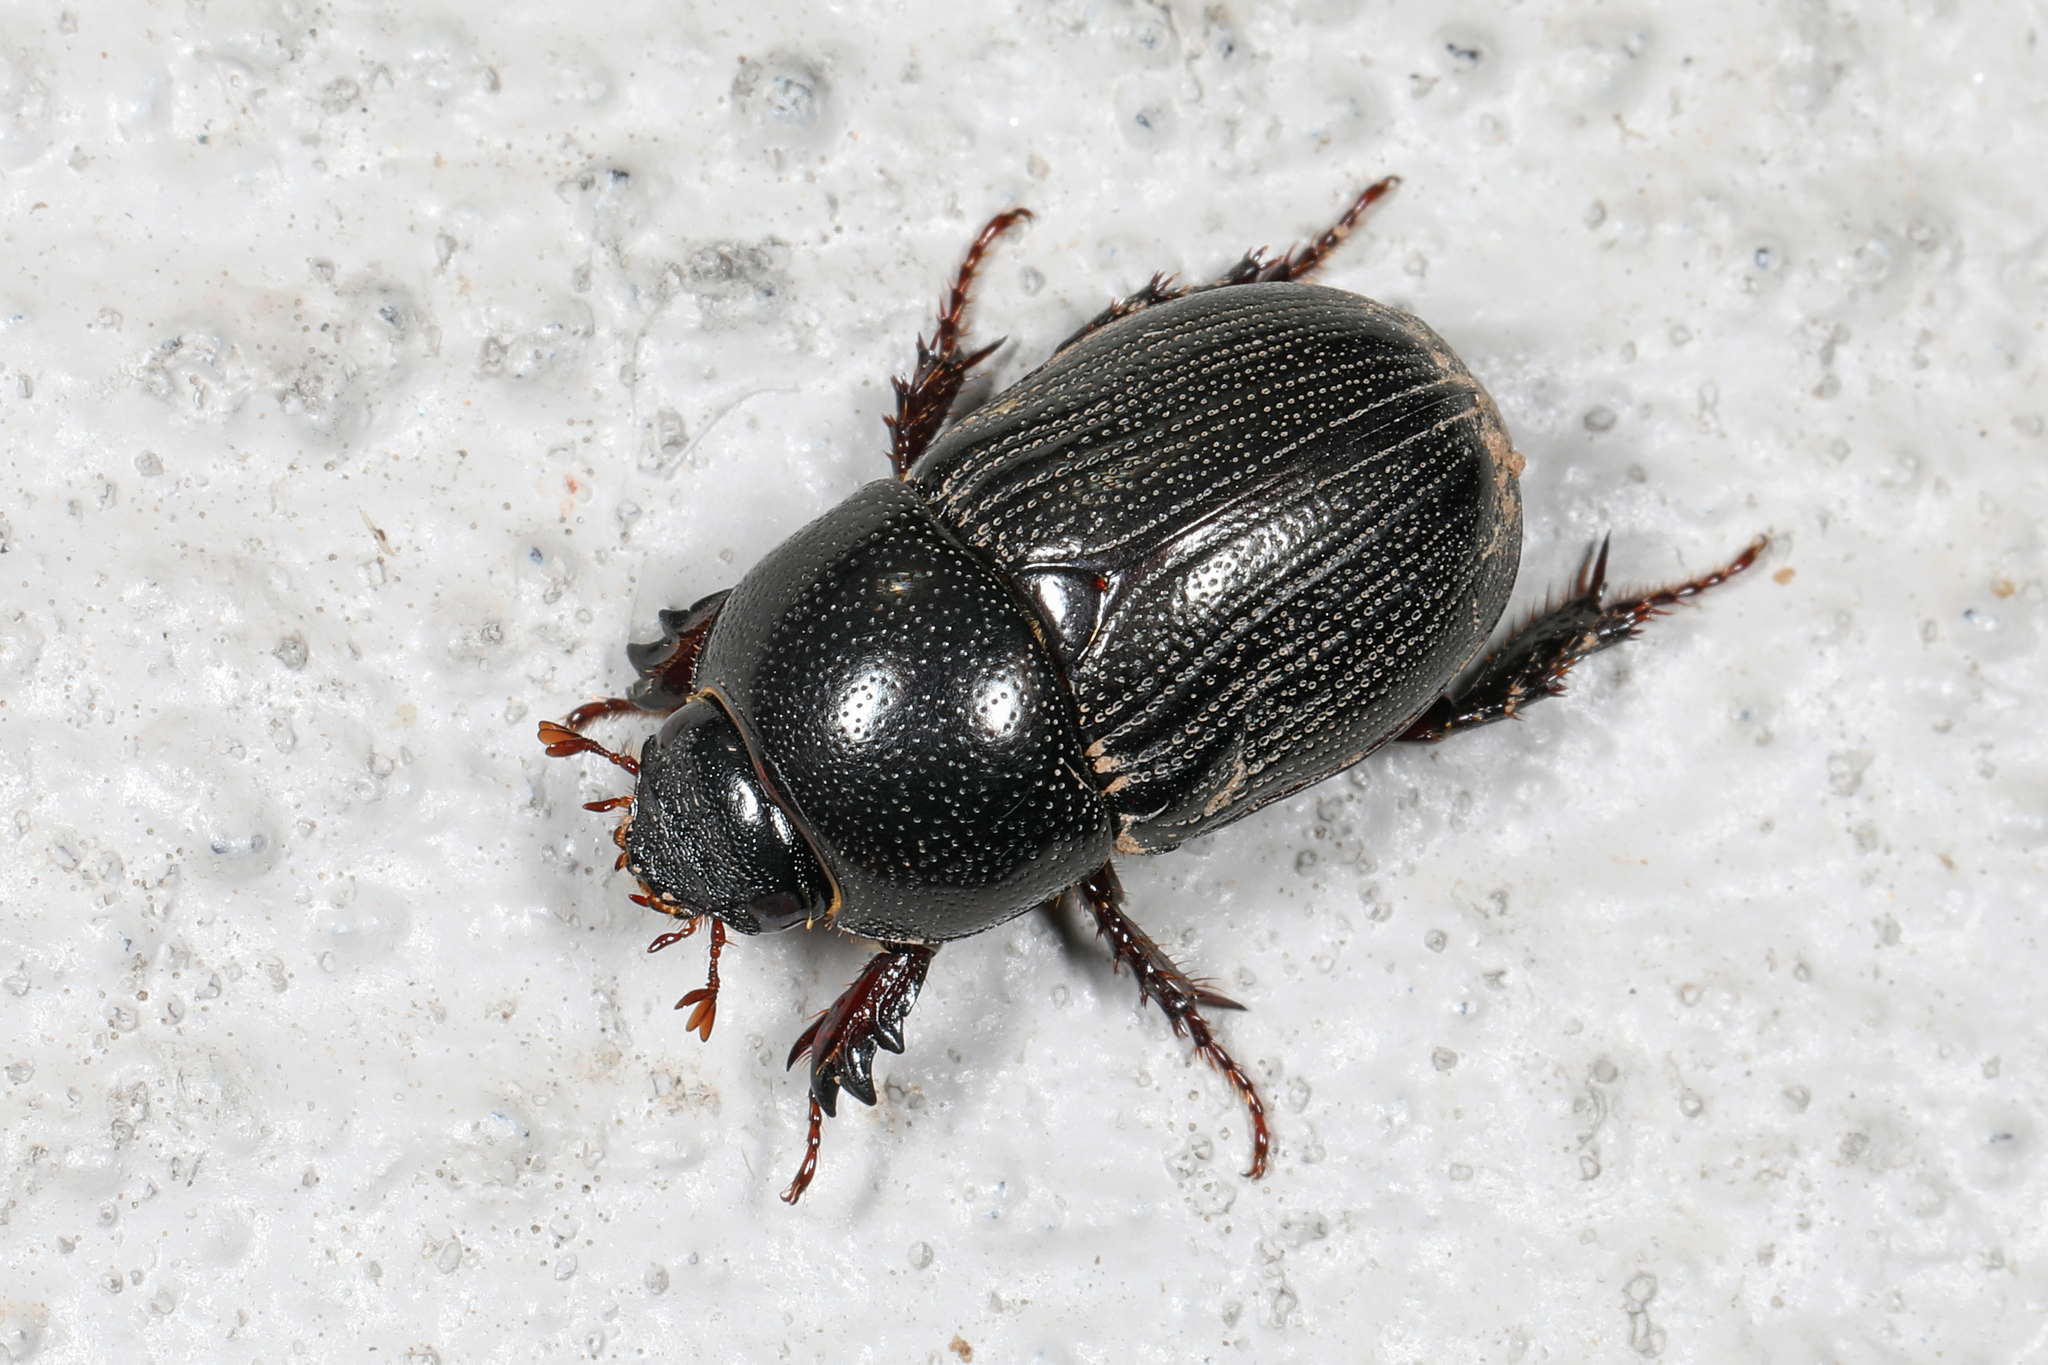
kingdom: Animalia
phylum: Arthropoda
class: Insecta
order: Coleoptera
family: Scarabaeidae
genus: Euetheola
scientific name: Euetheola humilis
